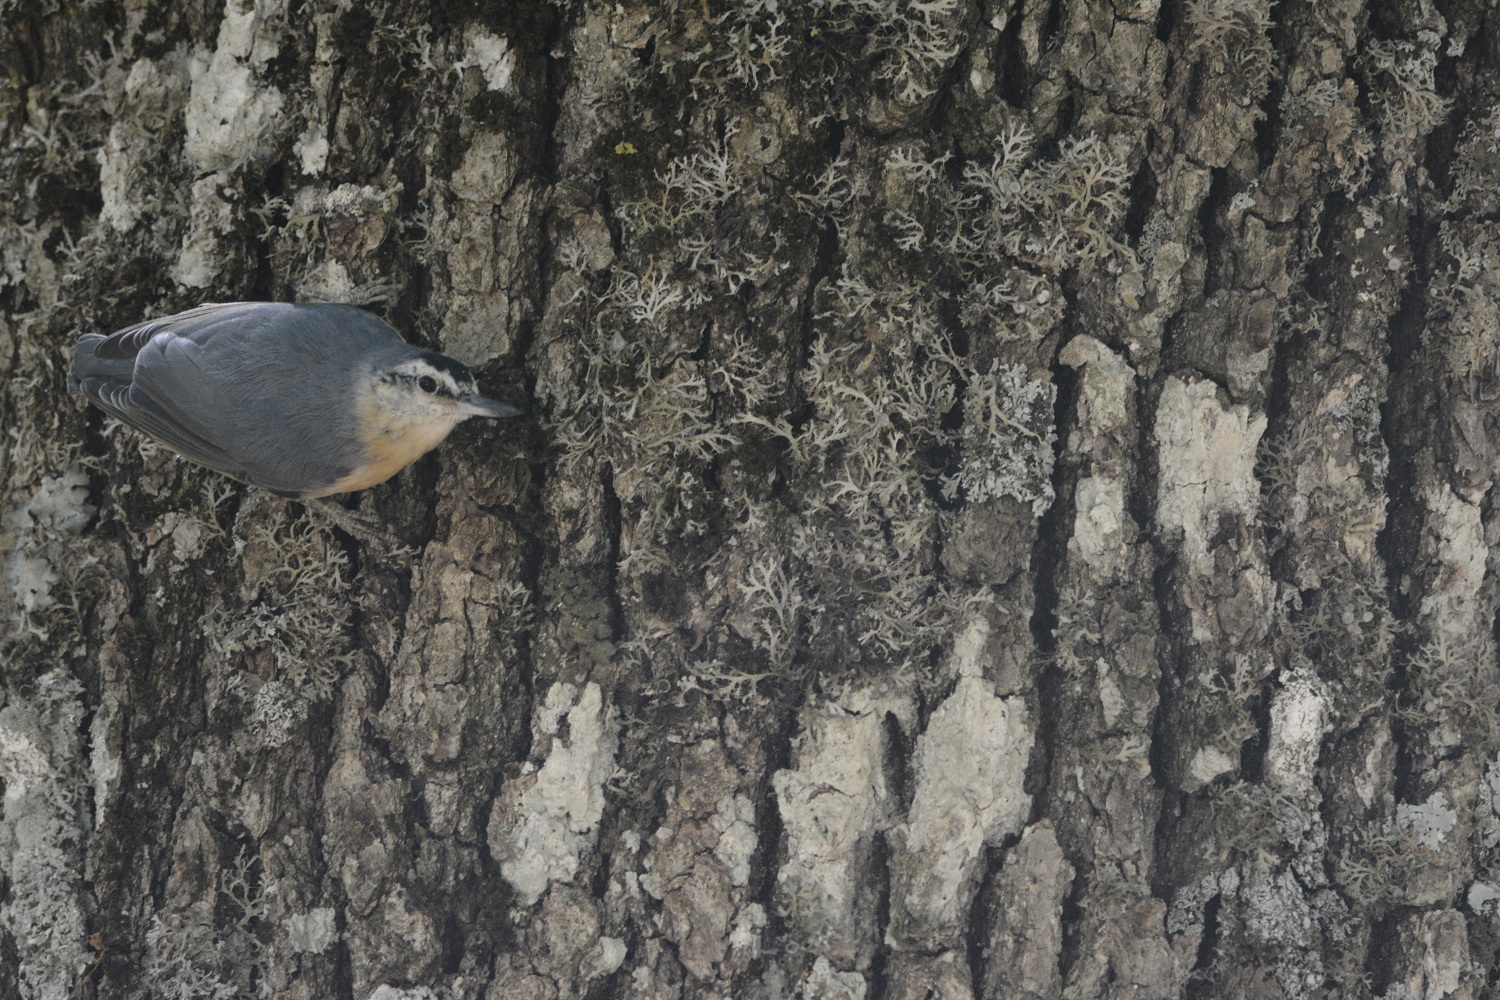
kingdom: Animalia
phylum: Chordata
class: Aves
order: Passeriformes
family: Sittidae
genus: Sitta
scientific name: Sitta ledanti
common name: Algerian nuthatch
